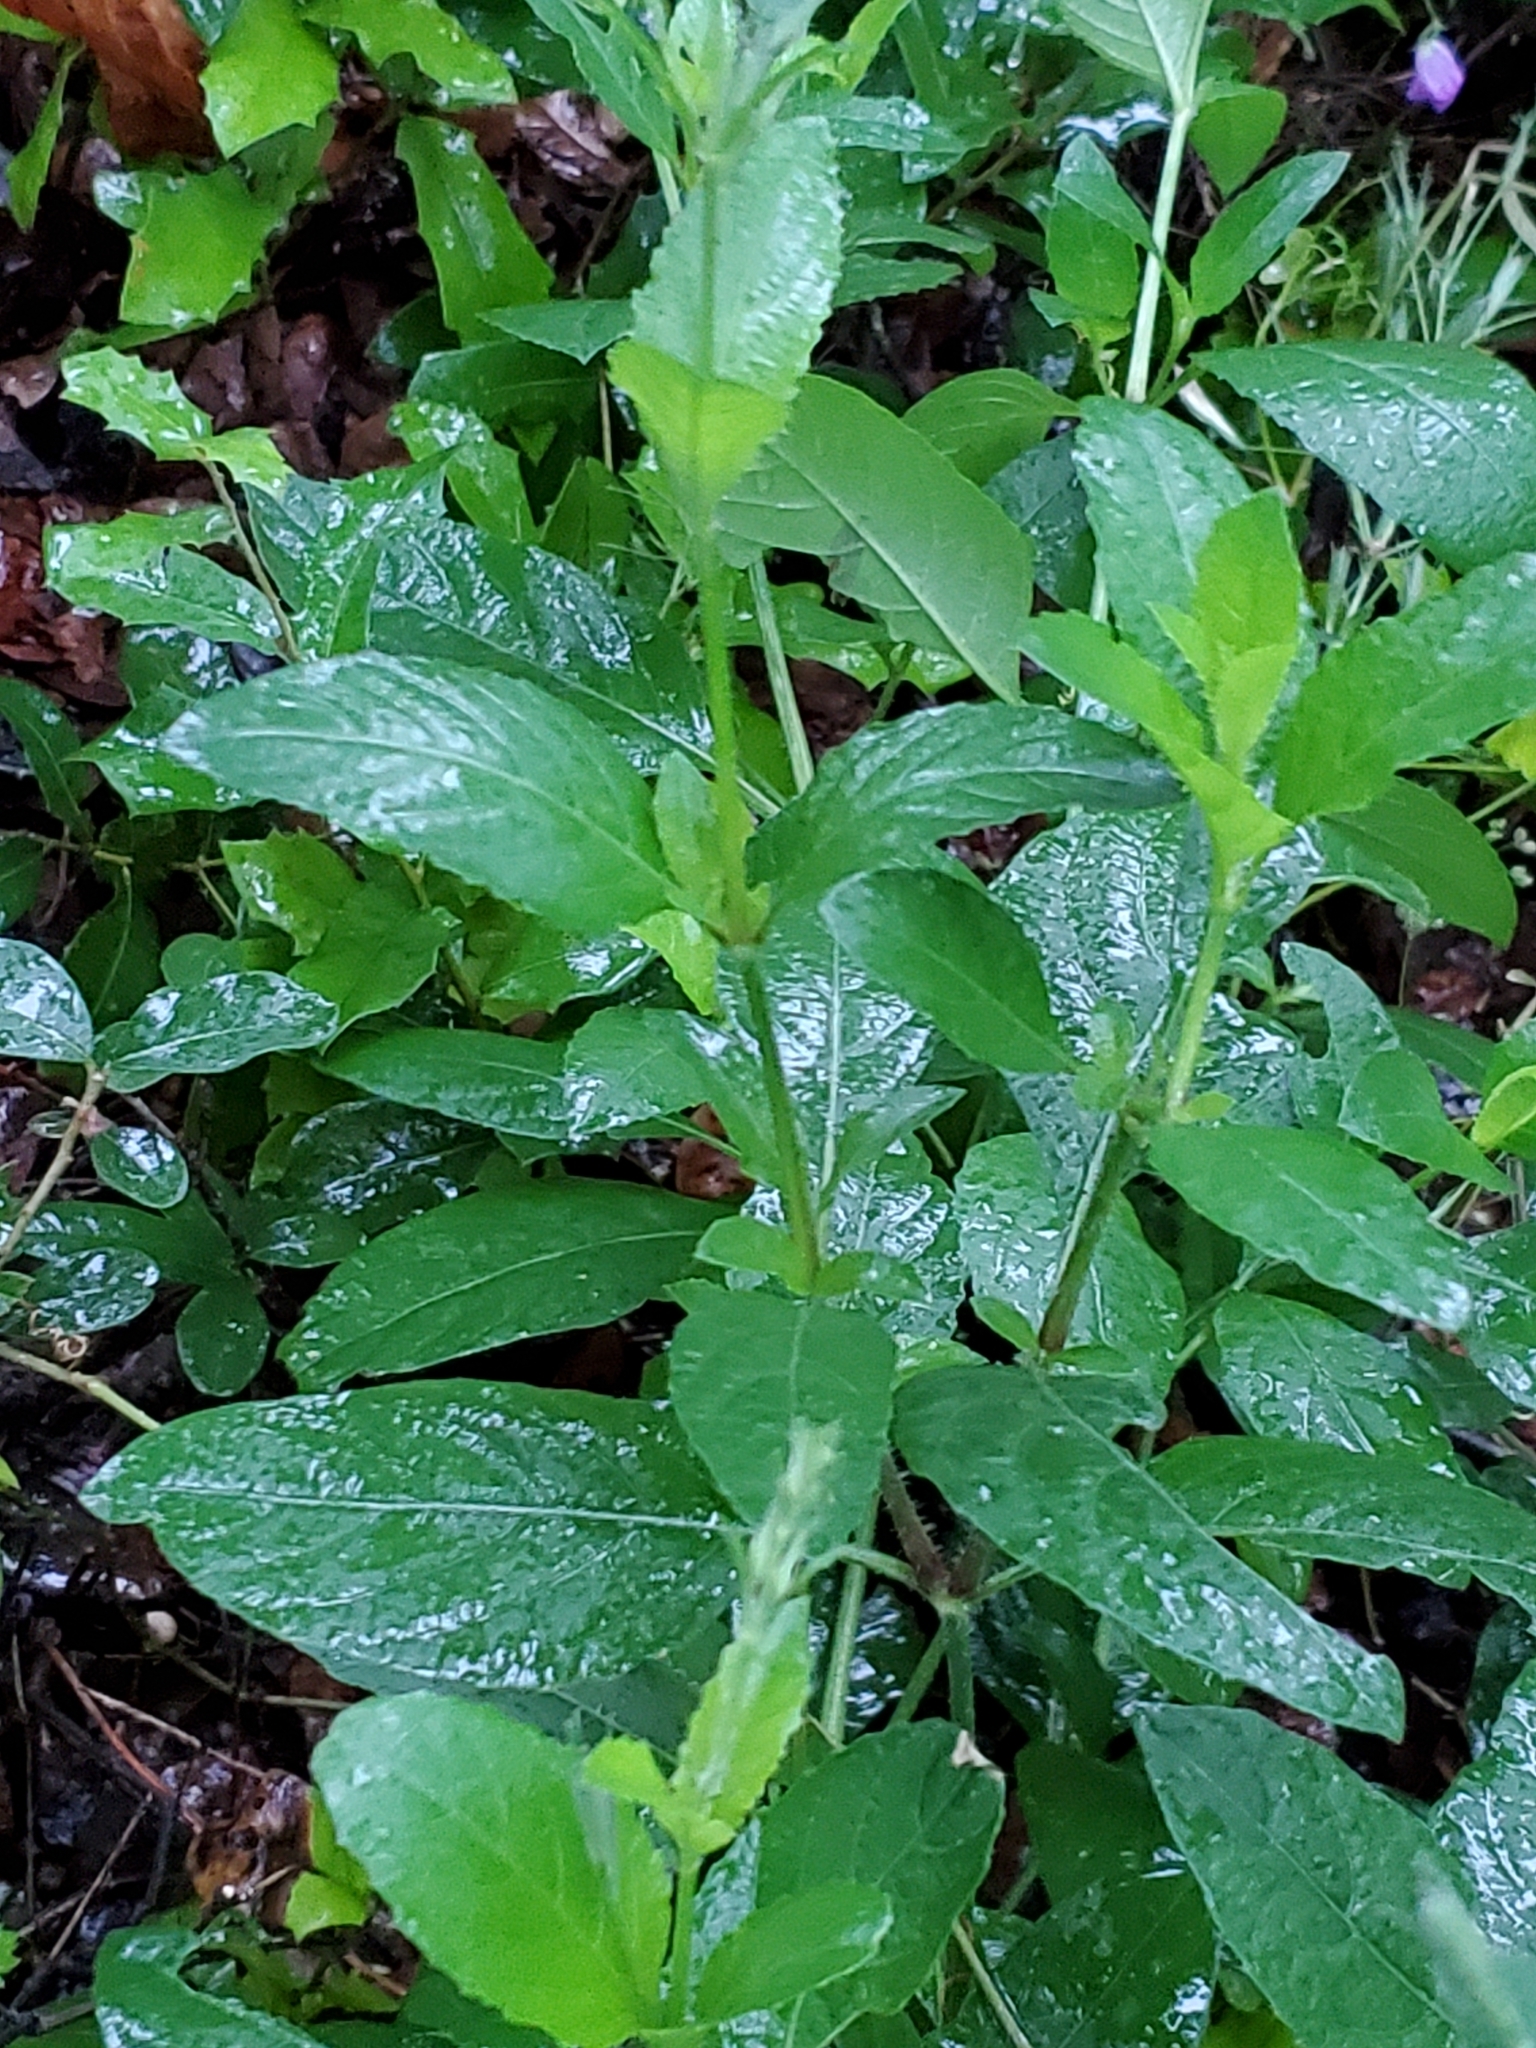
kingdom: Plantae
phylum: Tracheophyta
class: Magnoliopsida
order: Lamiales
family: Acanthaceae
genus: Ruellia
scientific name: Ruellia ciliatiflora
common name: Hairyflower wild petunia
